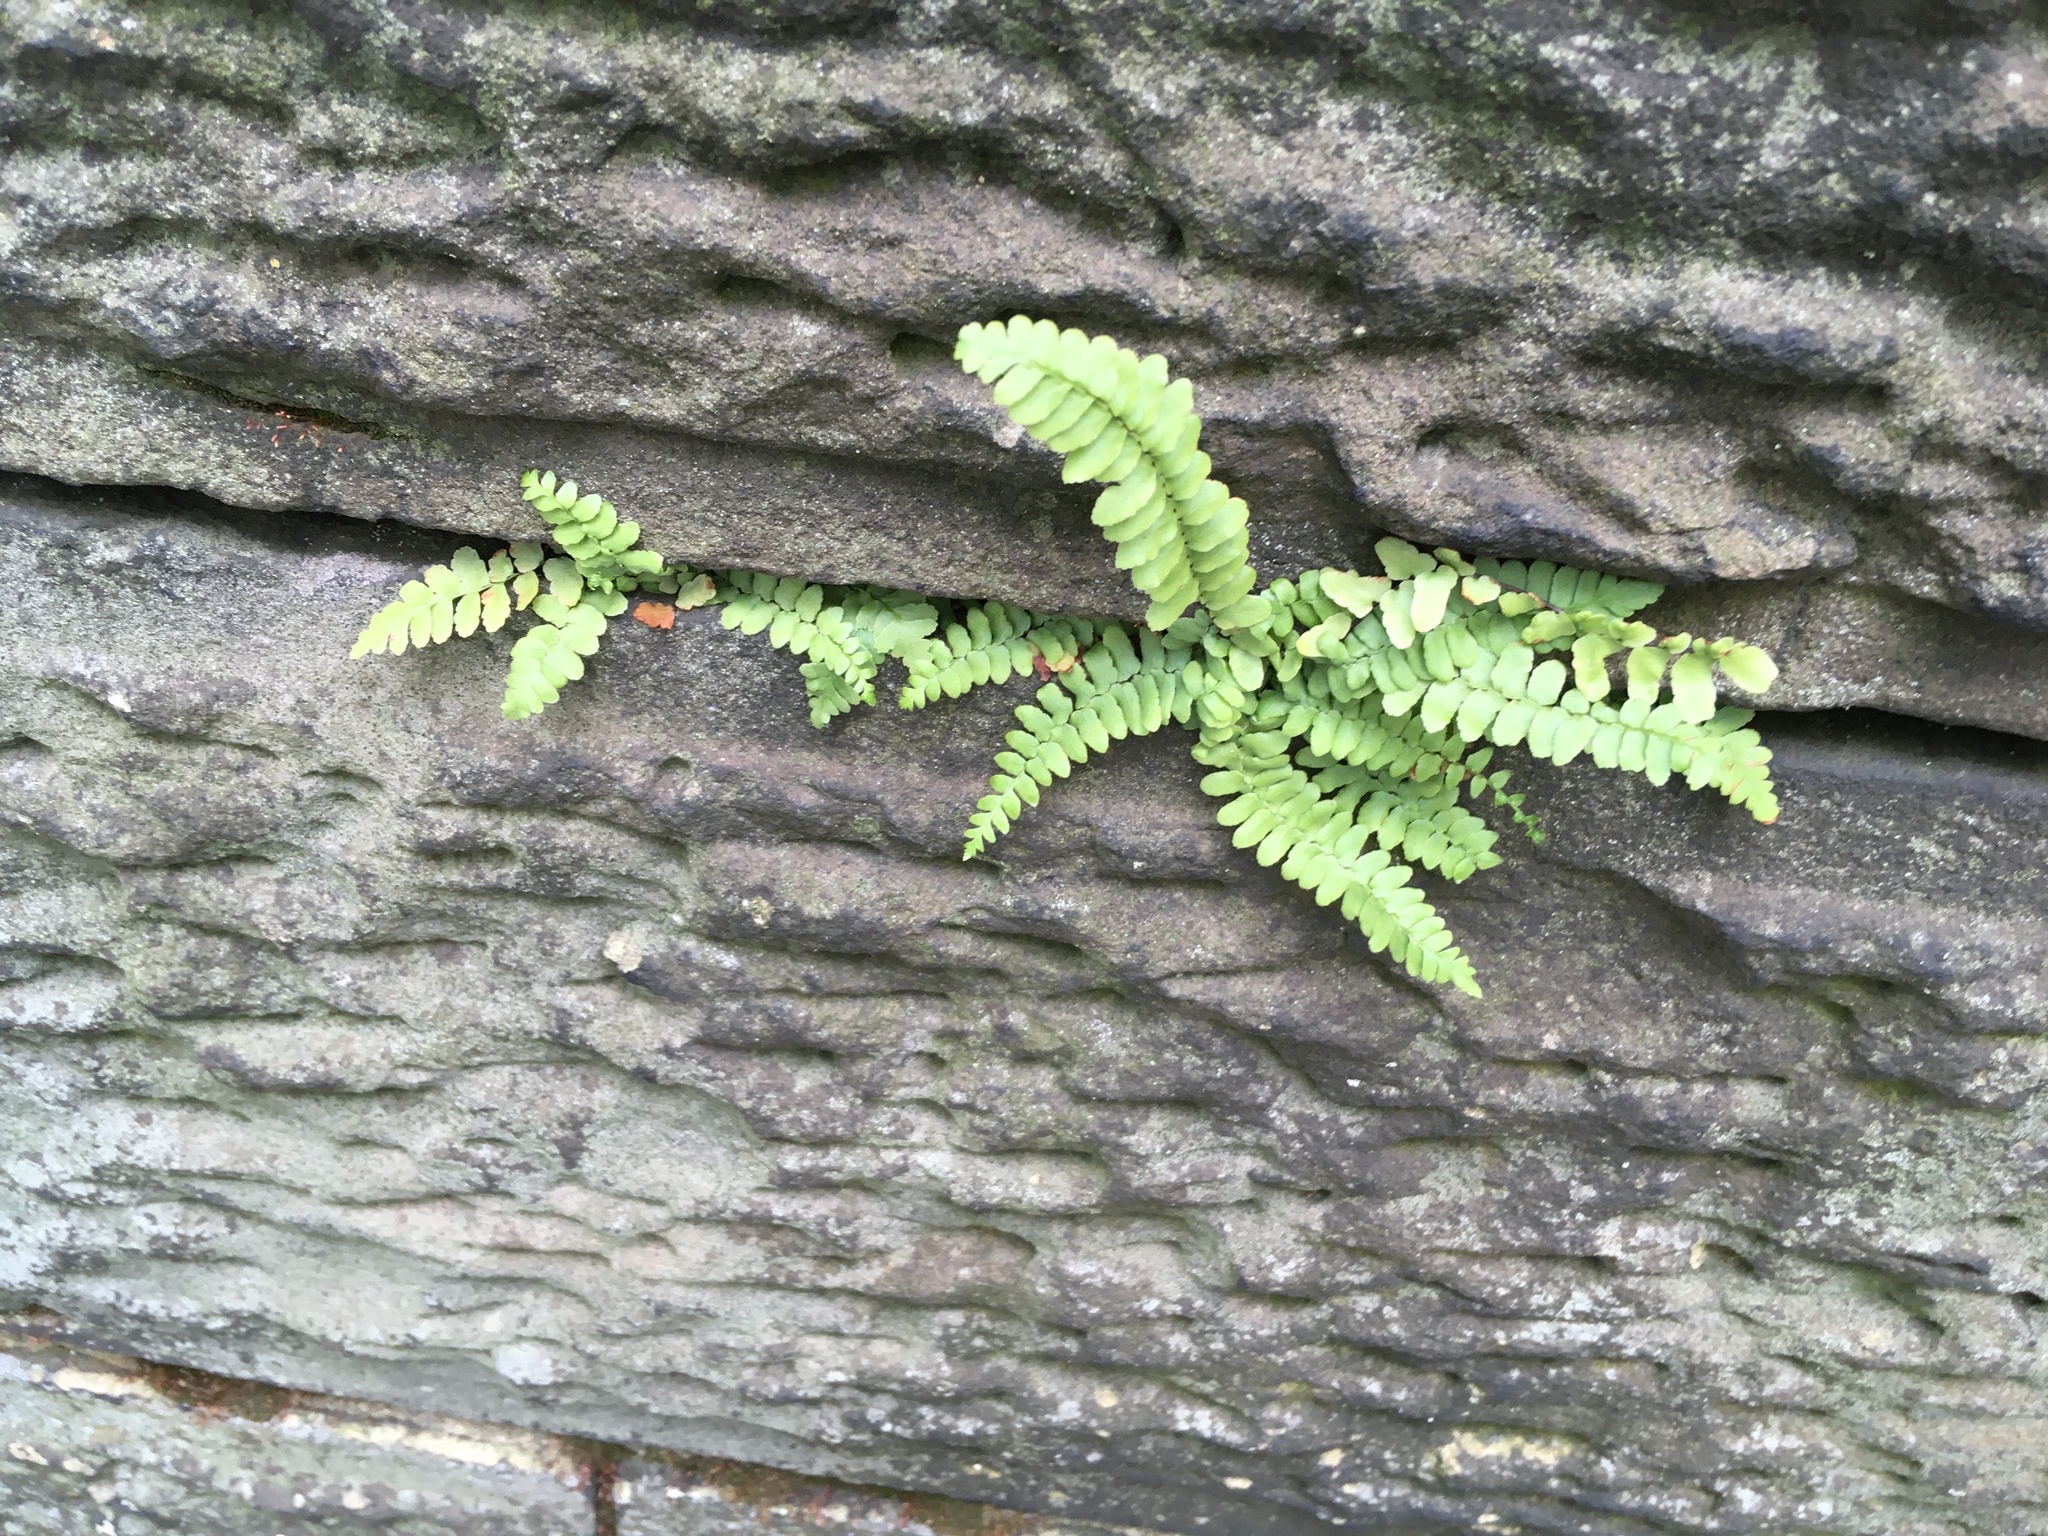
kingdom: Plantae
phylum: Tracheophyta
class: Polypodiopsida
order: Polypodiales
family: Aspleniaceae
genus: Asplenium
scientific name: Asplenium platyneuron
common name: Ebony spleenwort
